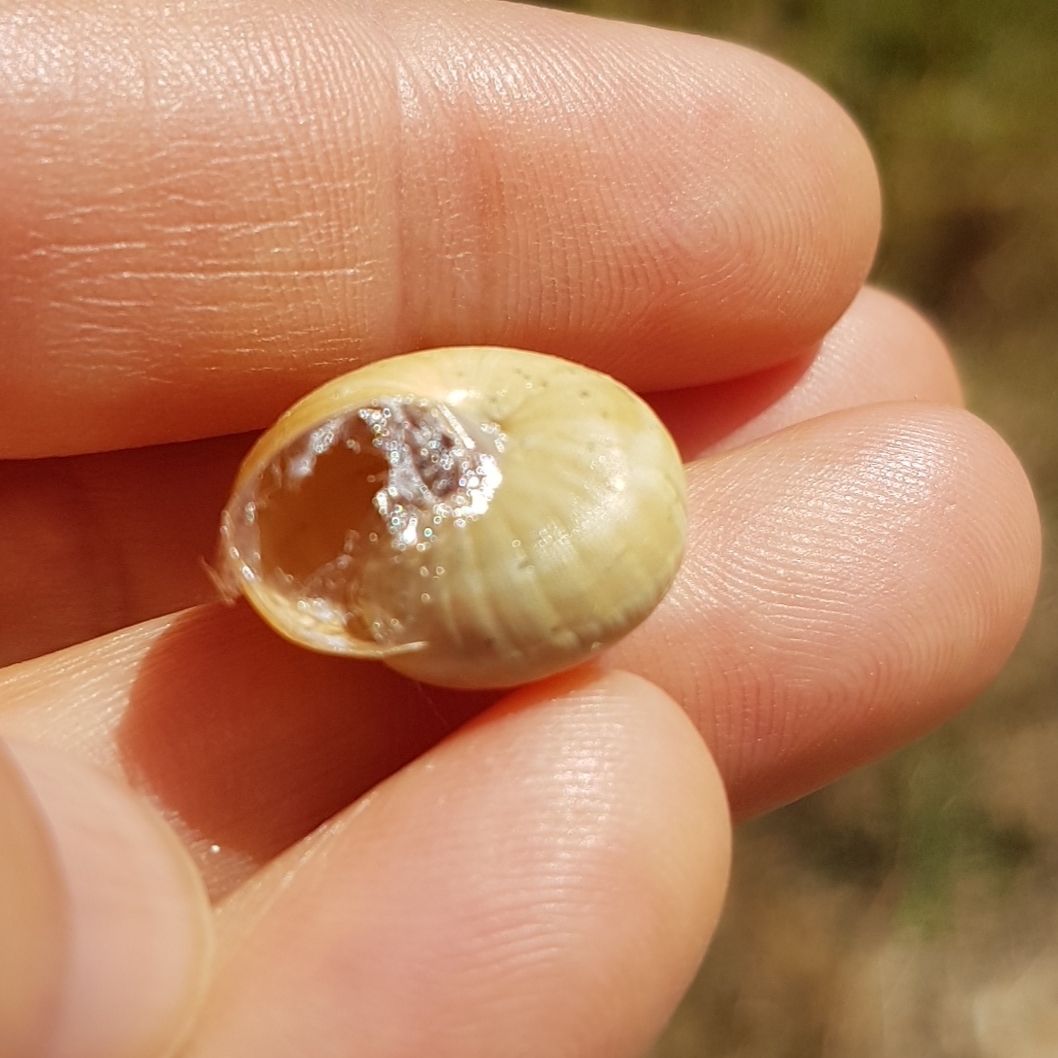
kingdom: Animalia
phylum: Mollusca
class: Gastropoda
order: Stylommatophora
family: Helicidae
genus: Theba
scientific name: Theba pisana
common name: White snail
